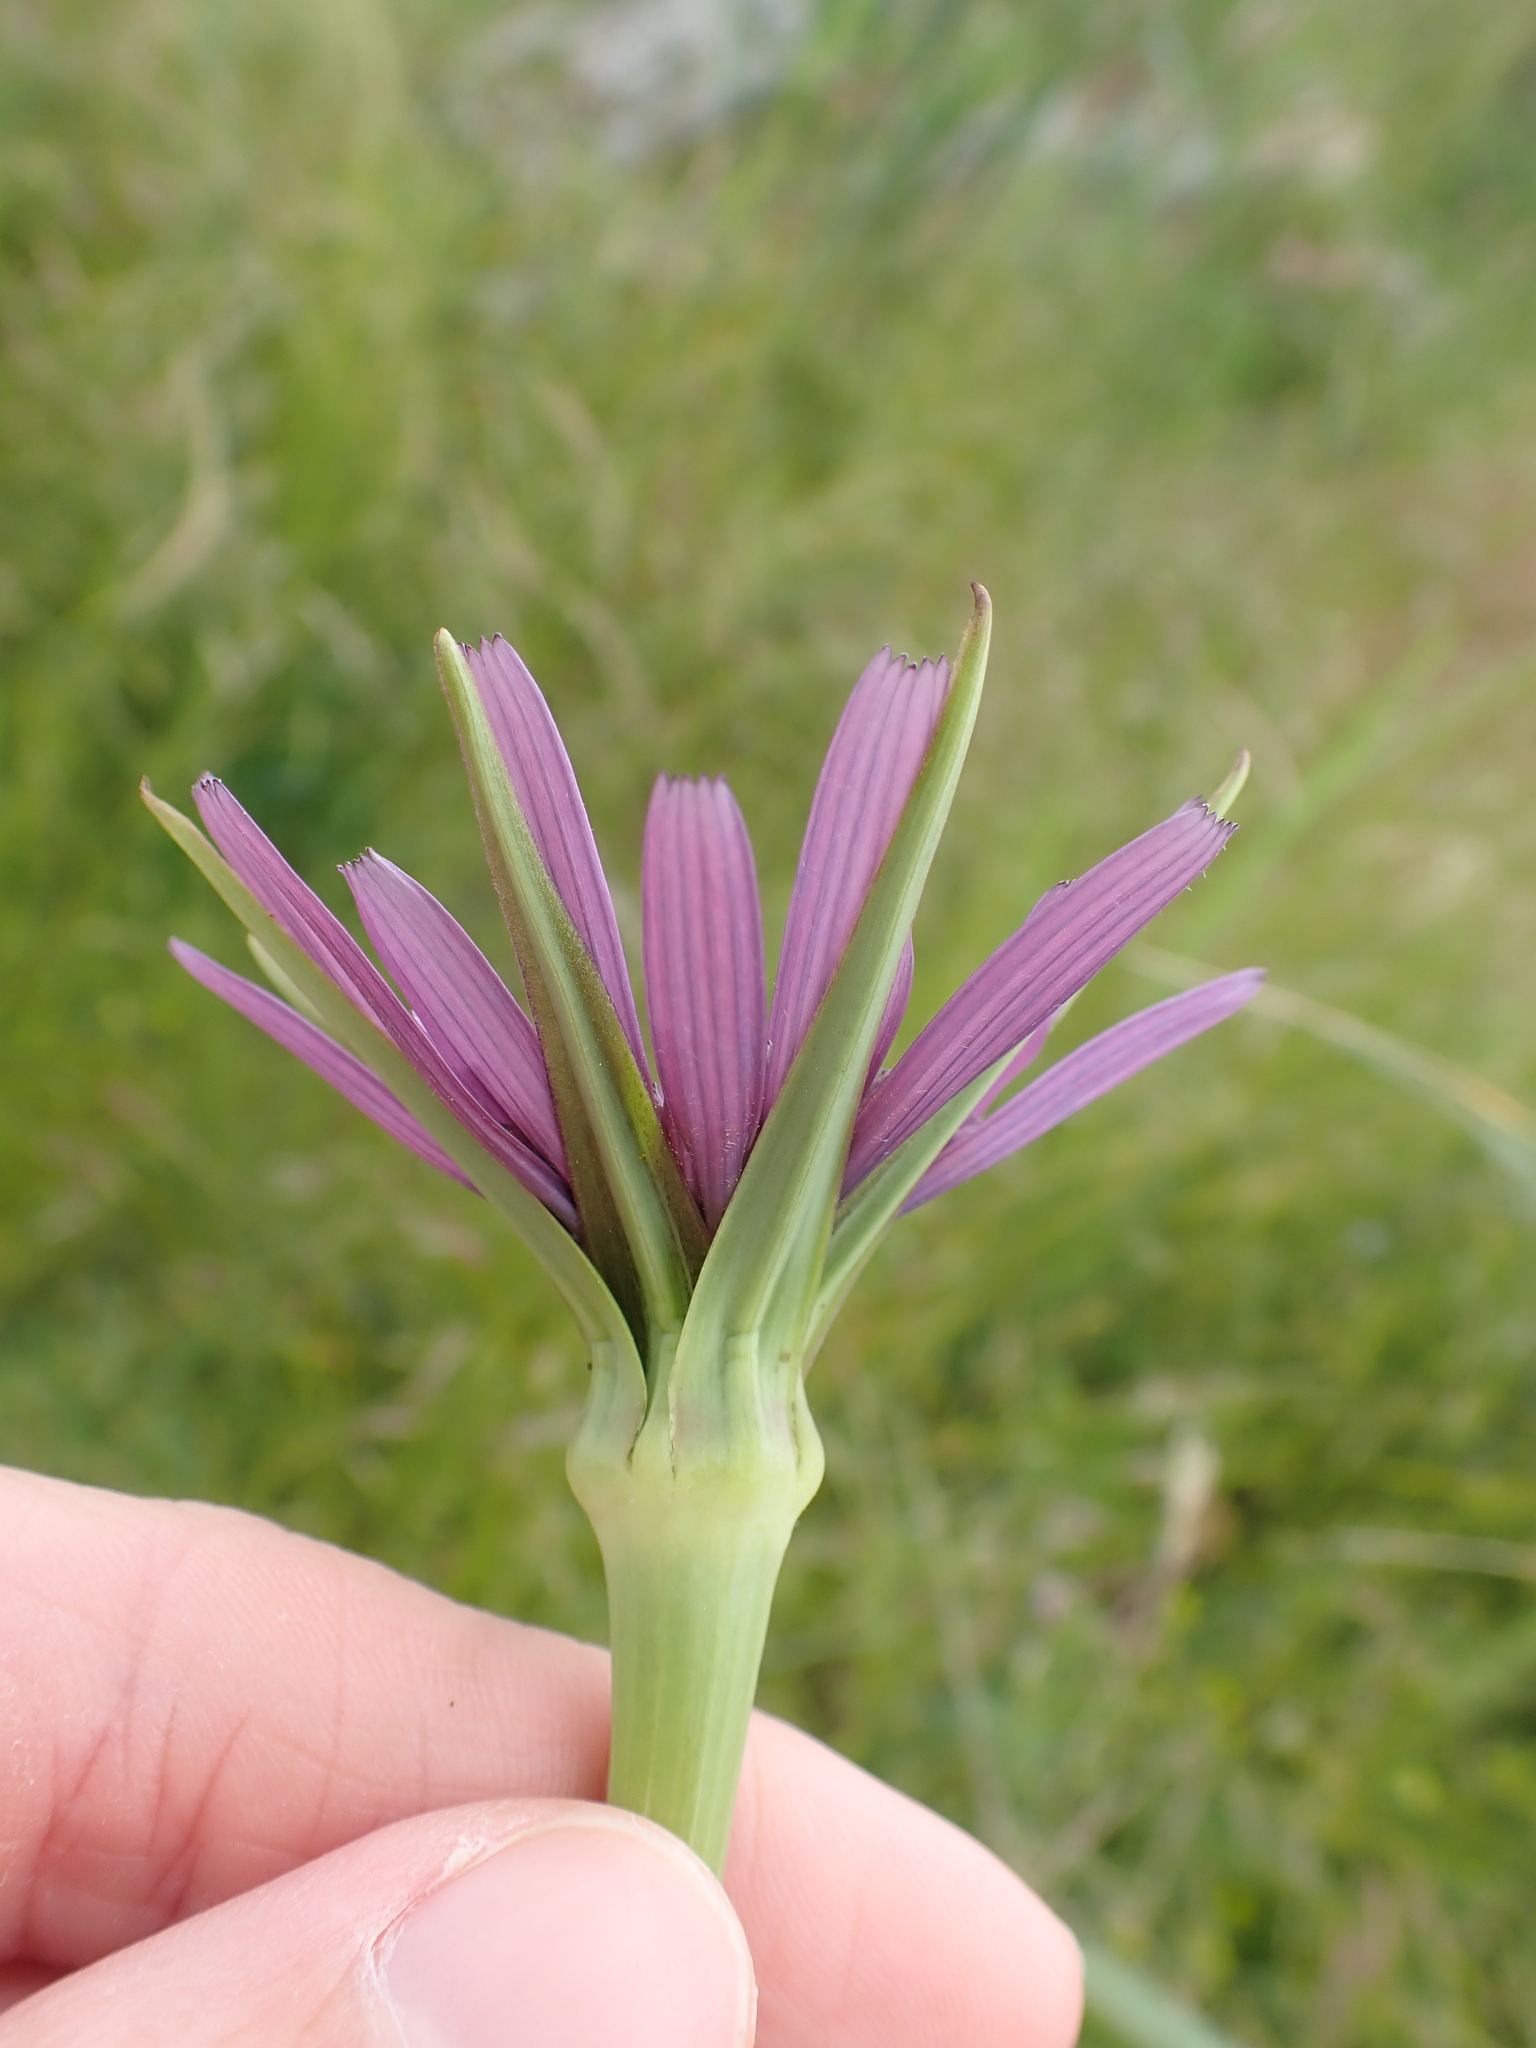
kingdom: Plantae
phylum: Tracheophyta
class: Magnoliopsida
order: Asterales
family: Asteraceae
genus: Tragopogon
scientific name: Tragopogon porrifolius
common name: Salsify
